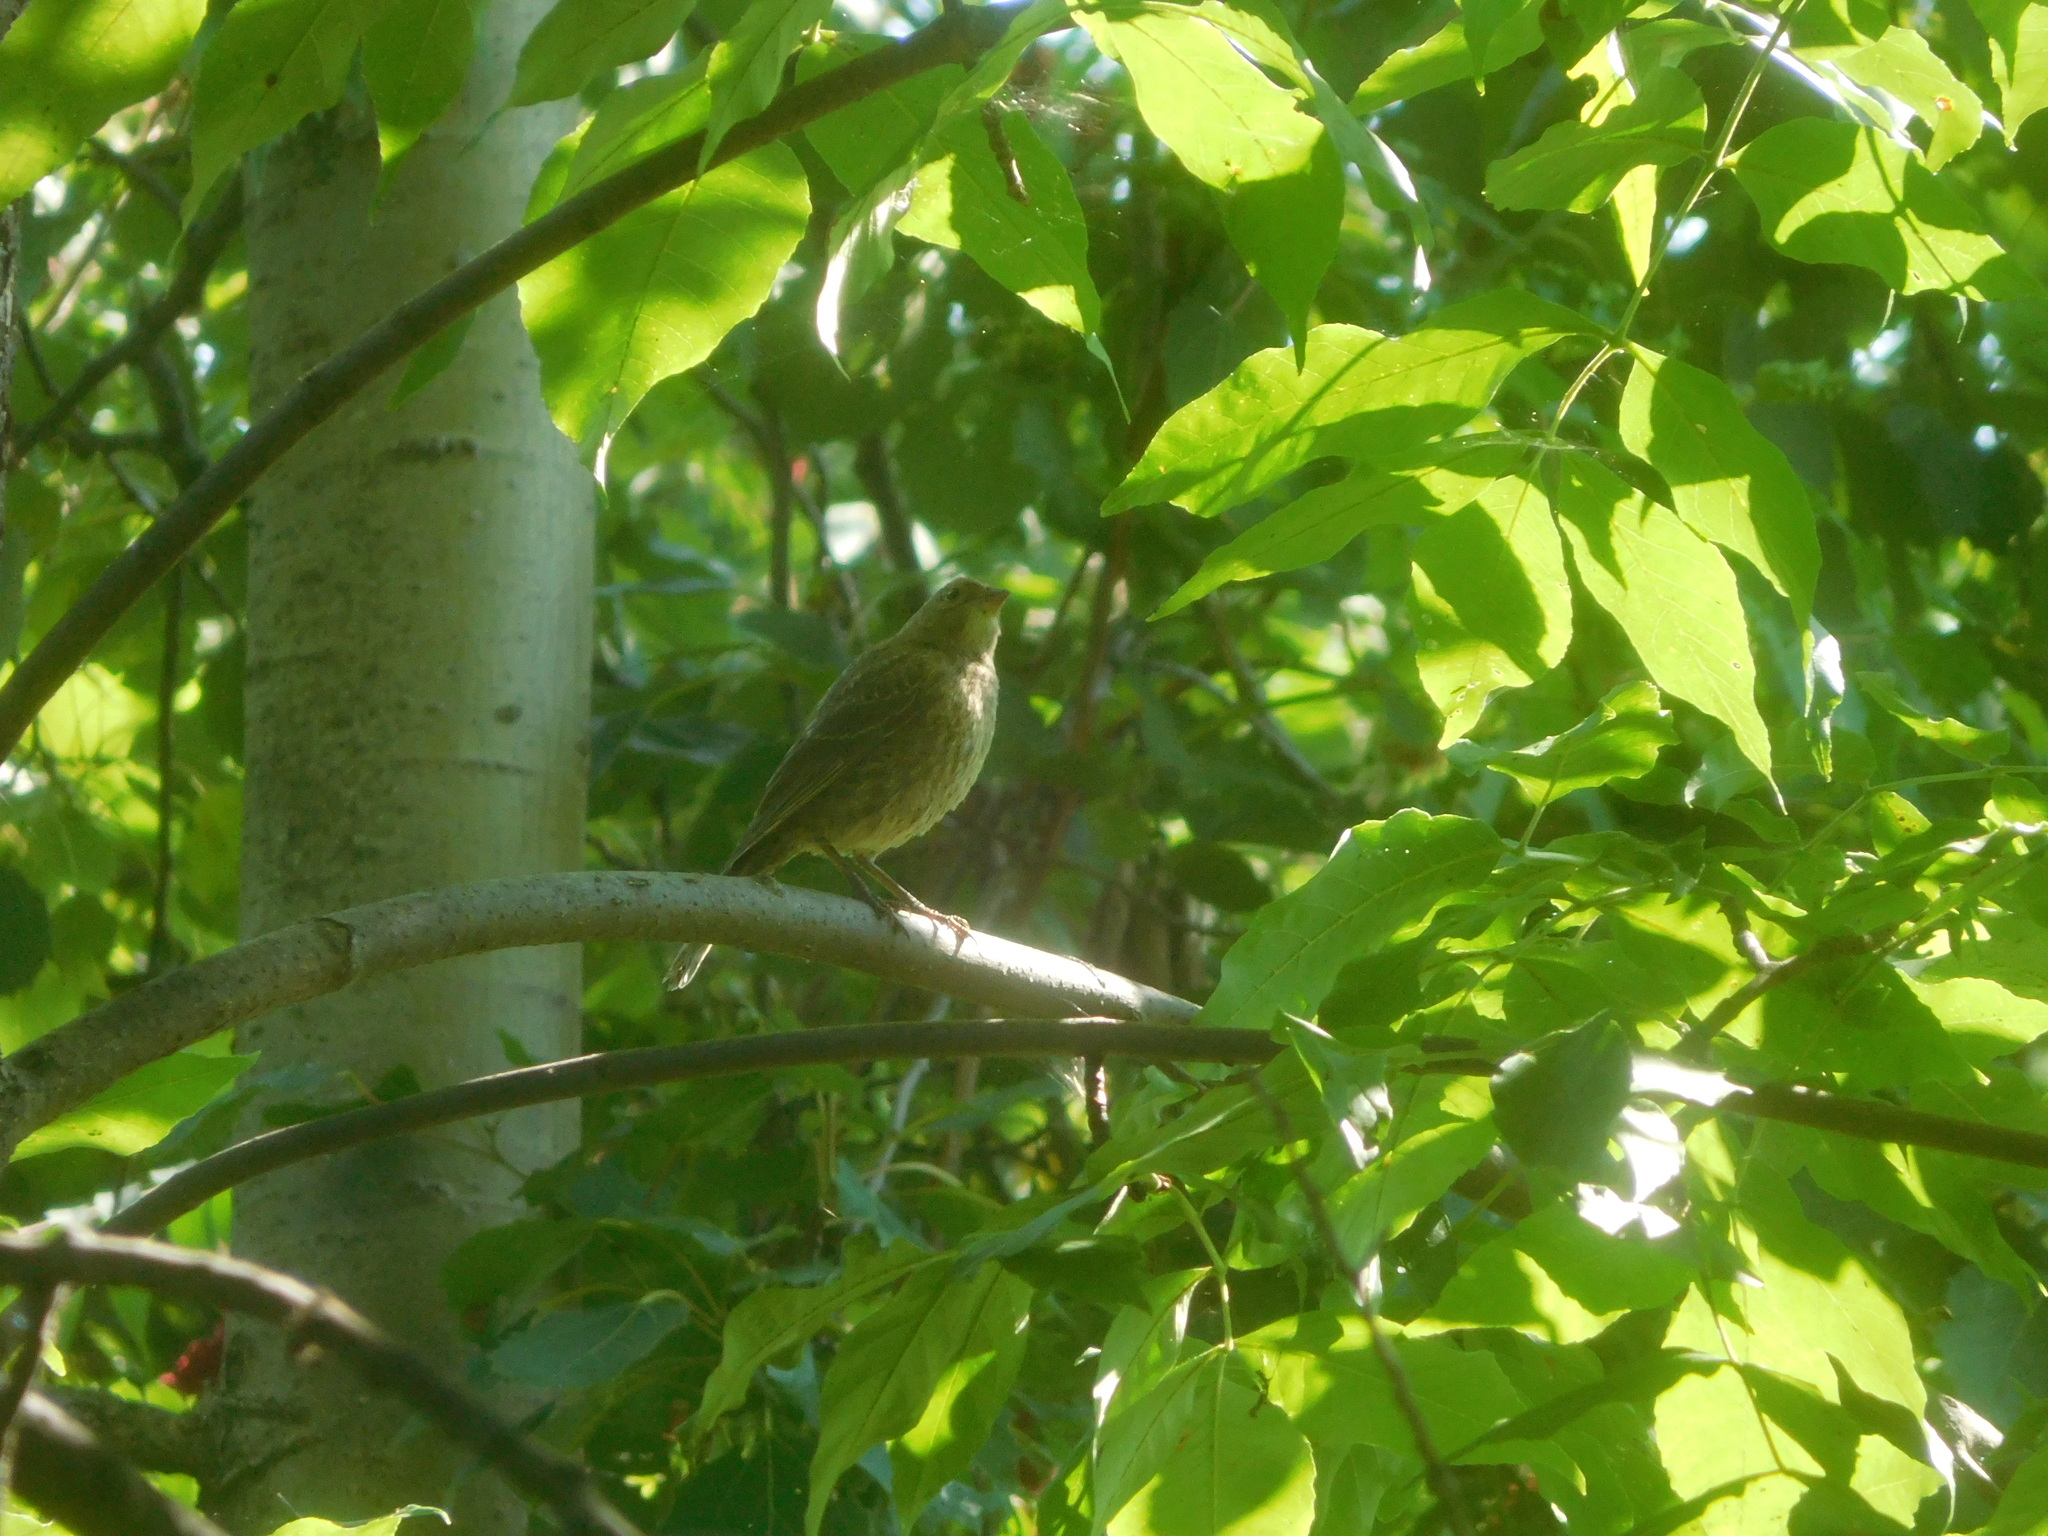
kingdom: Animalia
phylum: Chordata
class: Aves
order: Passeriformes
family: Icteridae
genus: Molothrus
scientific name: Molothrus ater
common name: Brown-headed cowbird
